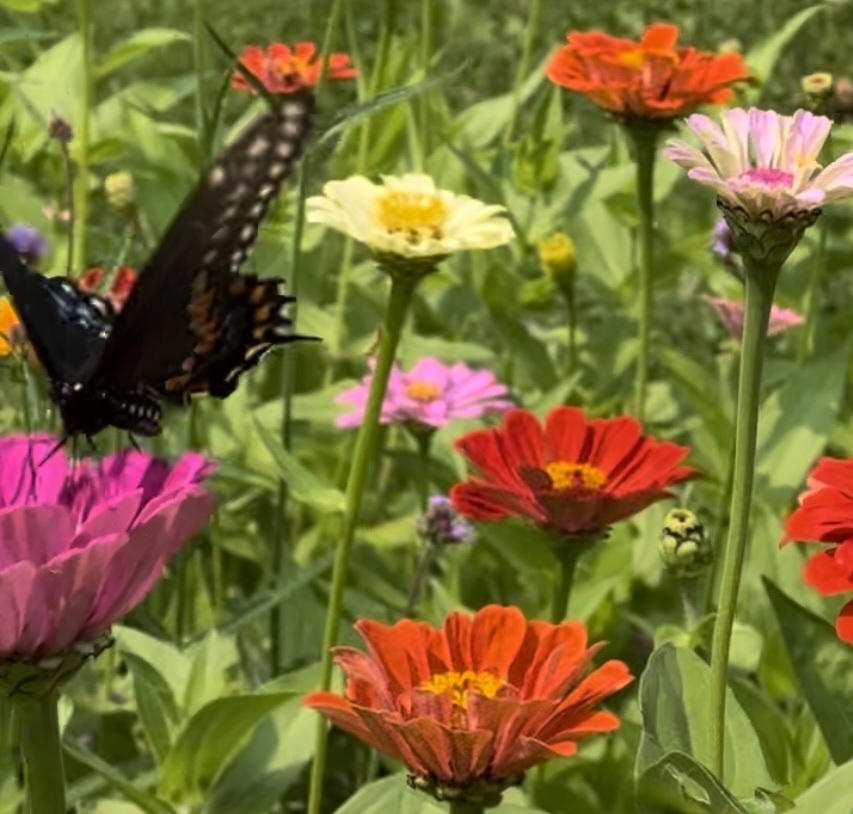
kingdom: Animalia
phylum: Arthropoda
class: Insecta
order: Lepidoptera
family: Papilionidae
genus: Papilio
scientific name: Papilio polyxenes
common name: Black swallowtail
